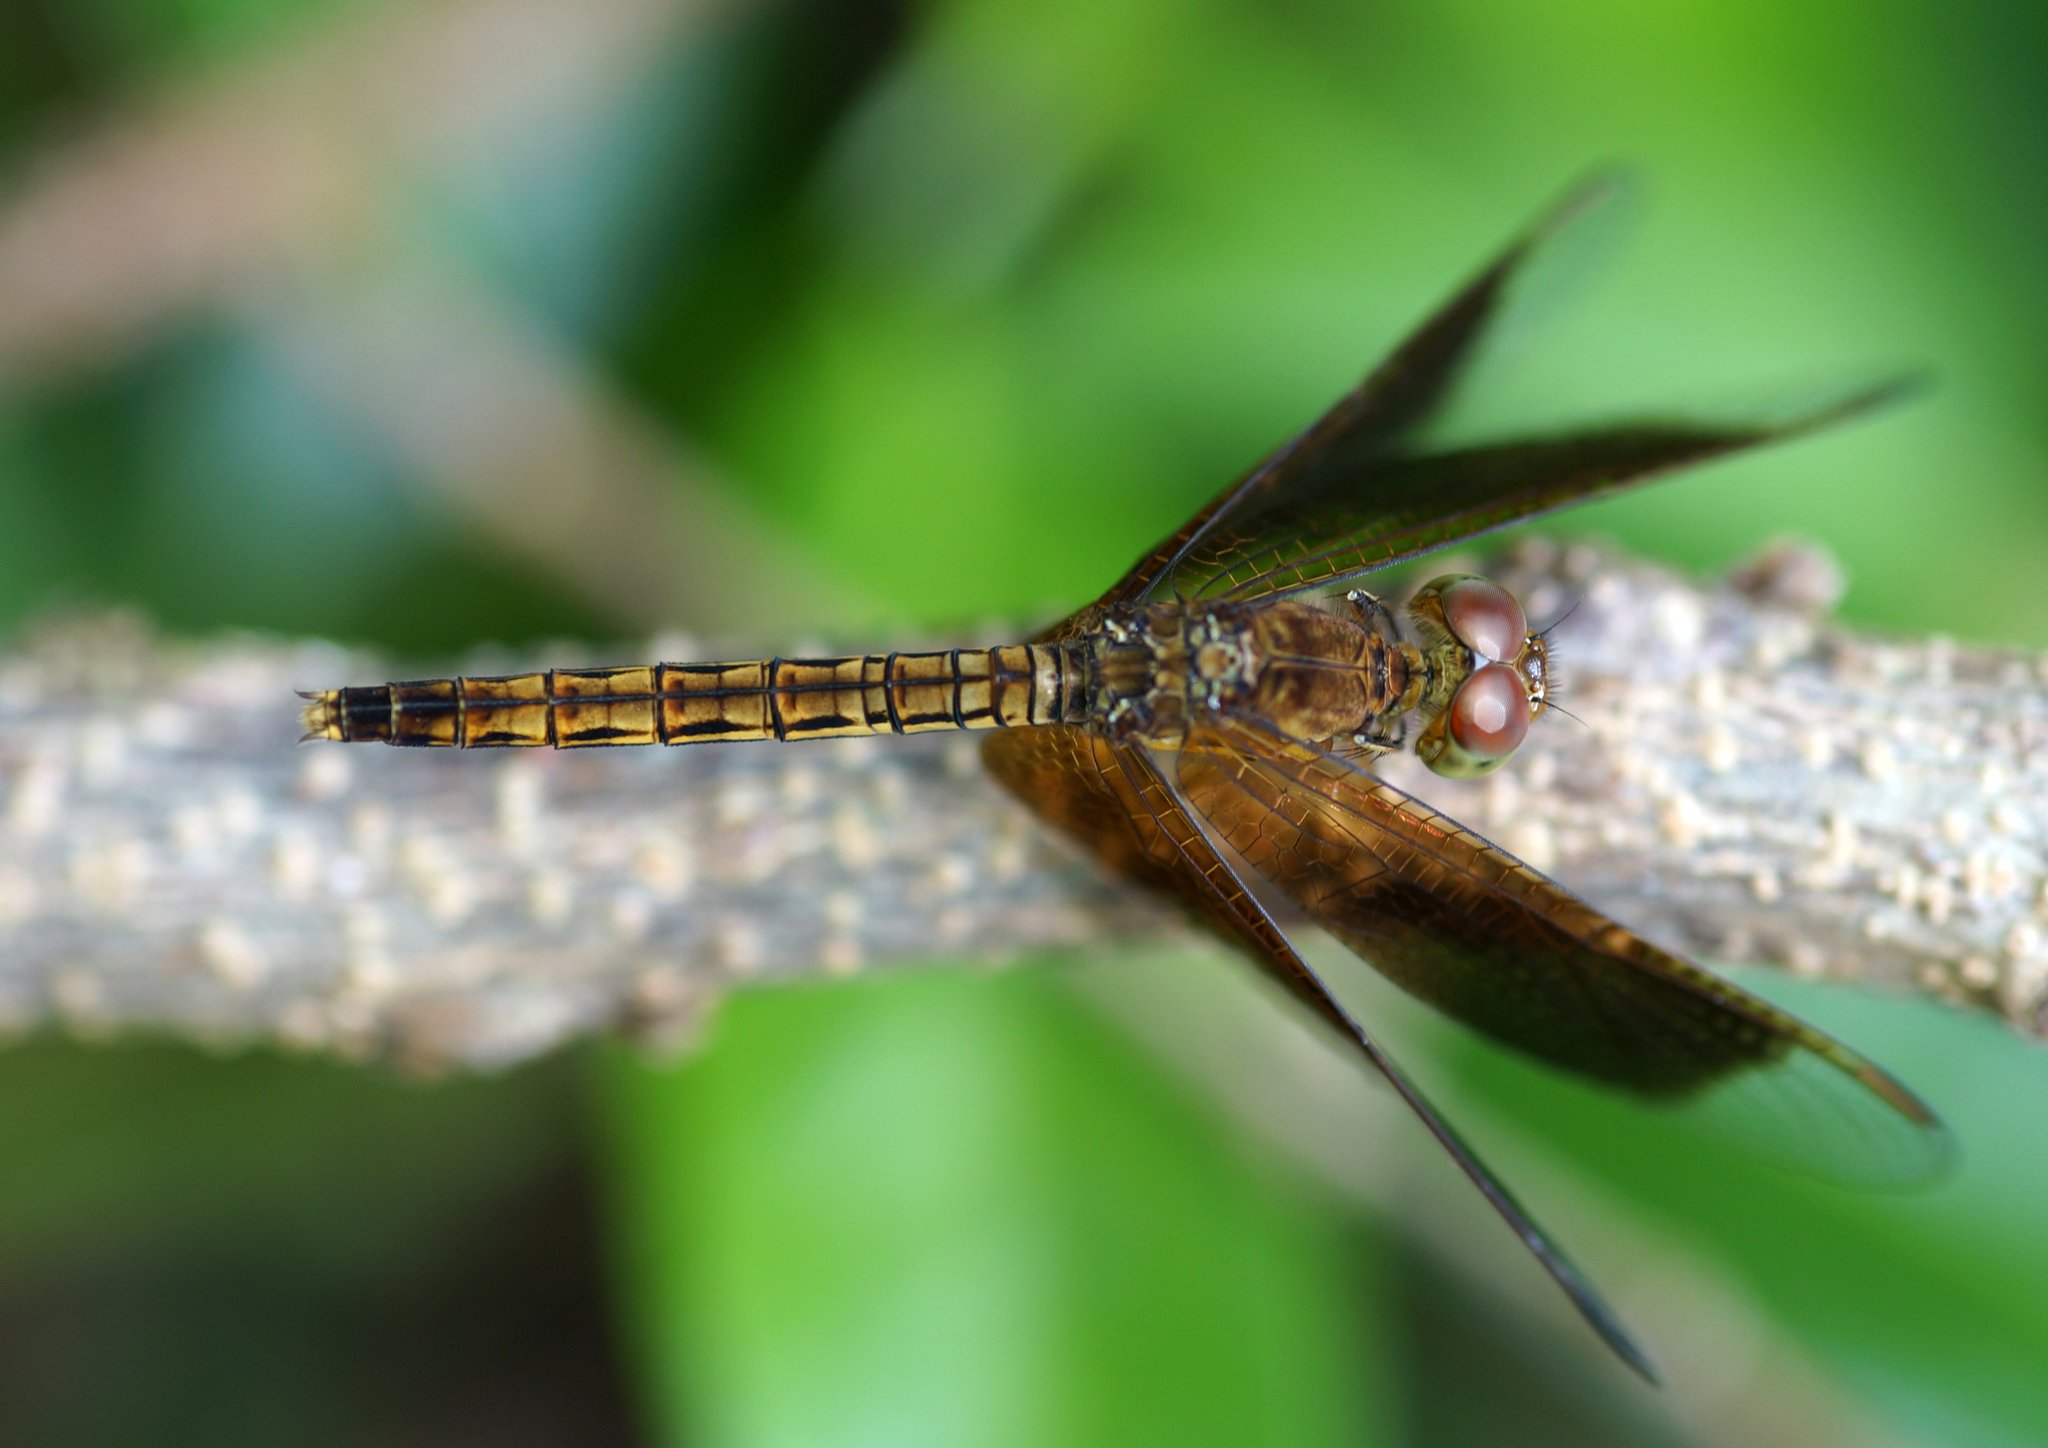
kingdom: Animalia
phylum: Arthropoda
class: Insecta
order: Odonata
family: Libellulidae
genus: Neurothemis
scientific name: Neurothemis fluctuans
